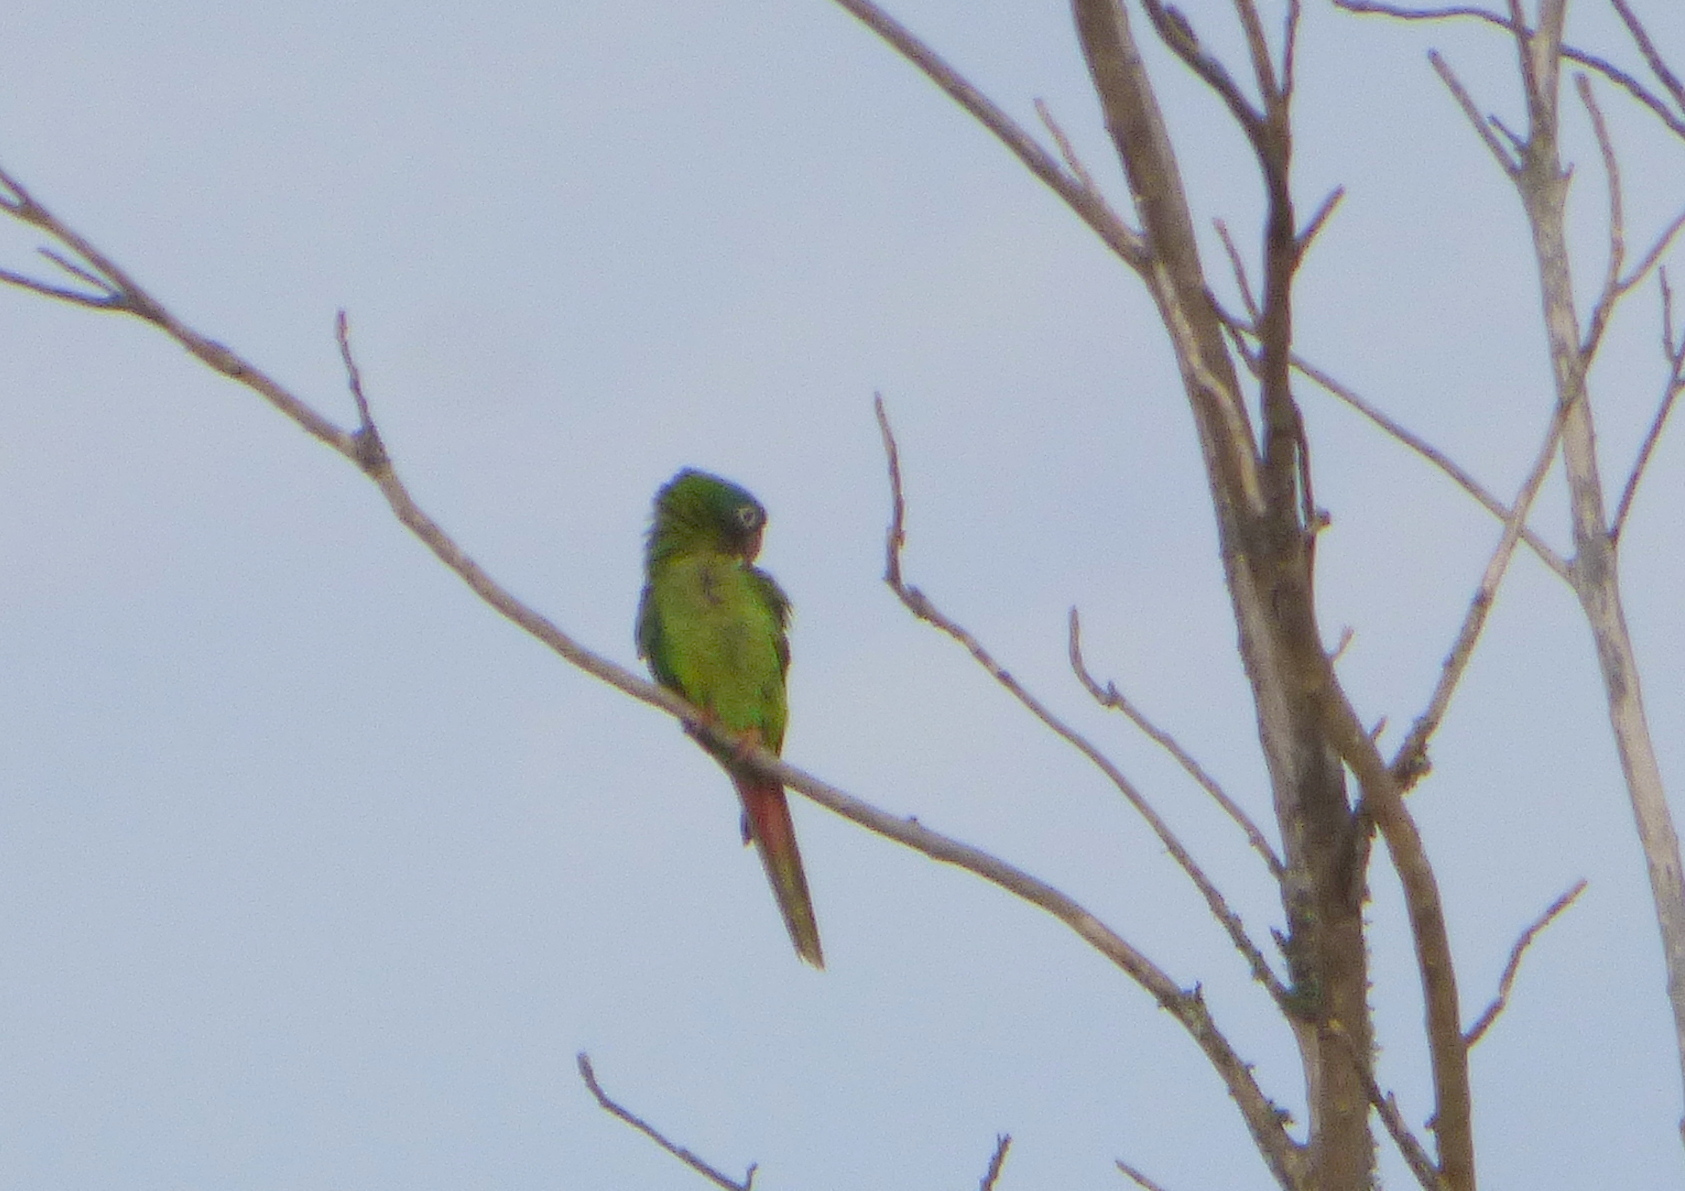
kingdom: Animalia
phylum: Chordata
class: Aves
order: Psittaciformes
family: Psittacidae
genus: Aratinga
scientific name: Aratinga acuticaudata
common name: Blue-crowned parakeet
